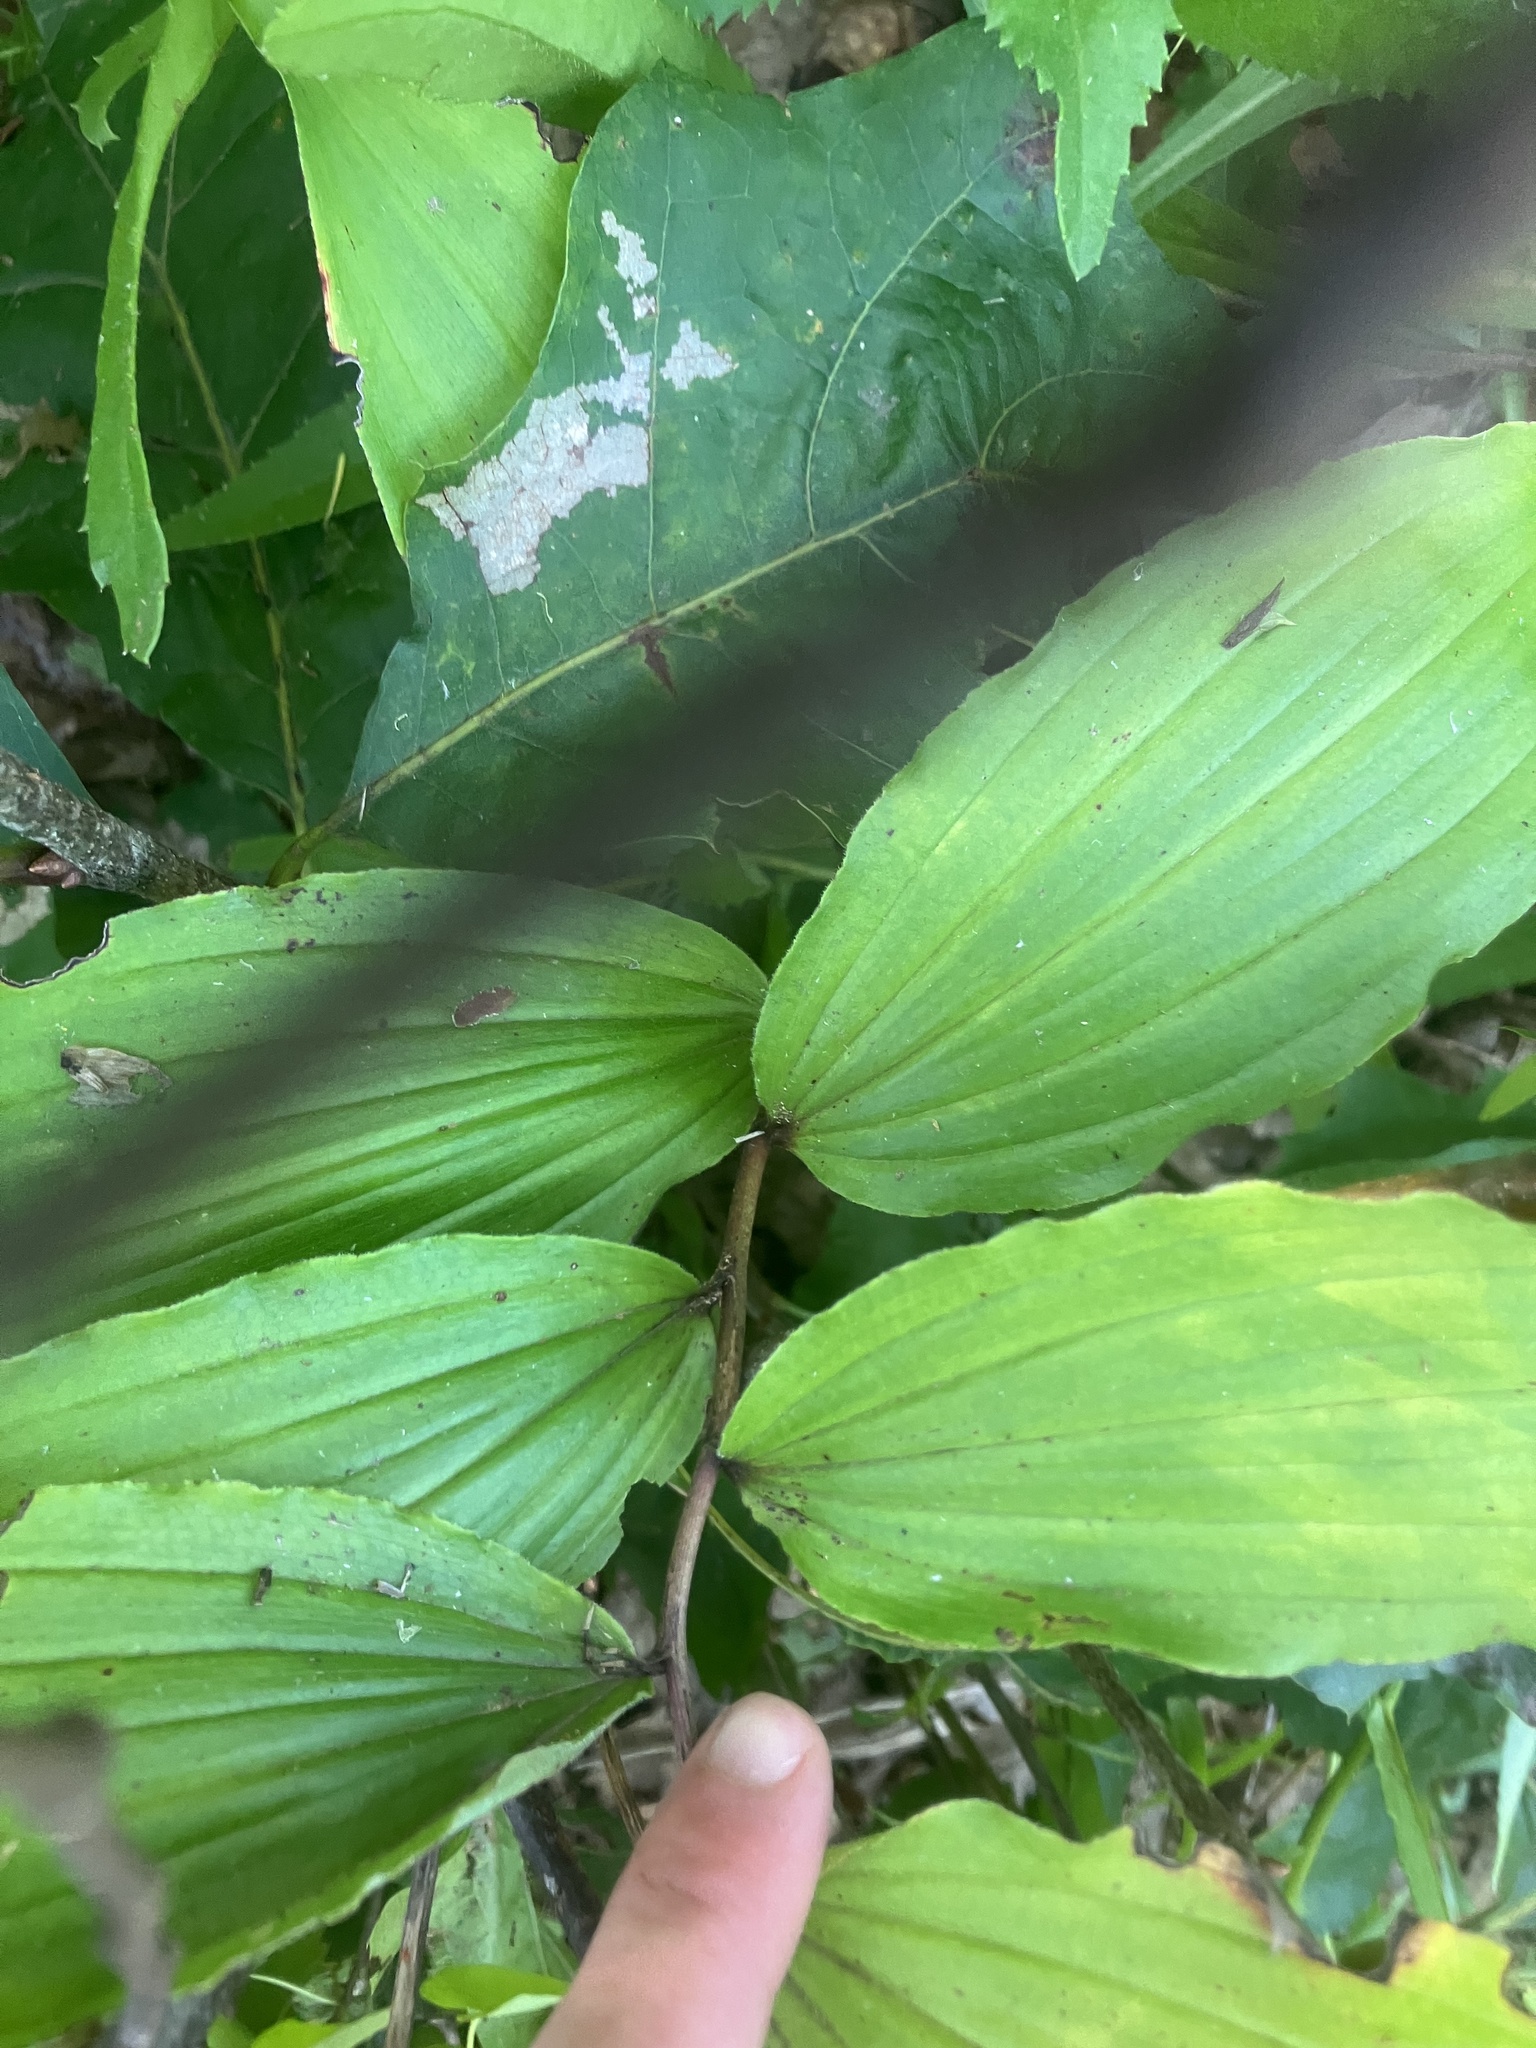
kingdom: Plantae
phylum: Tracheophyta
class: Liliopsida
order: Asparagales
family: Asparagaceae
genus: Maianthemum
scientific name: Maianthemum racemosum
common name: False spikenard
